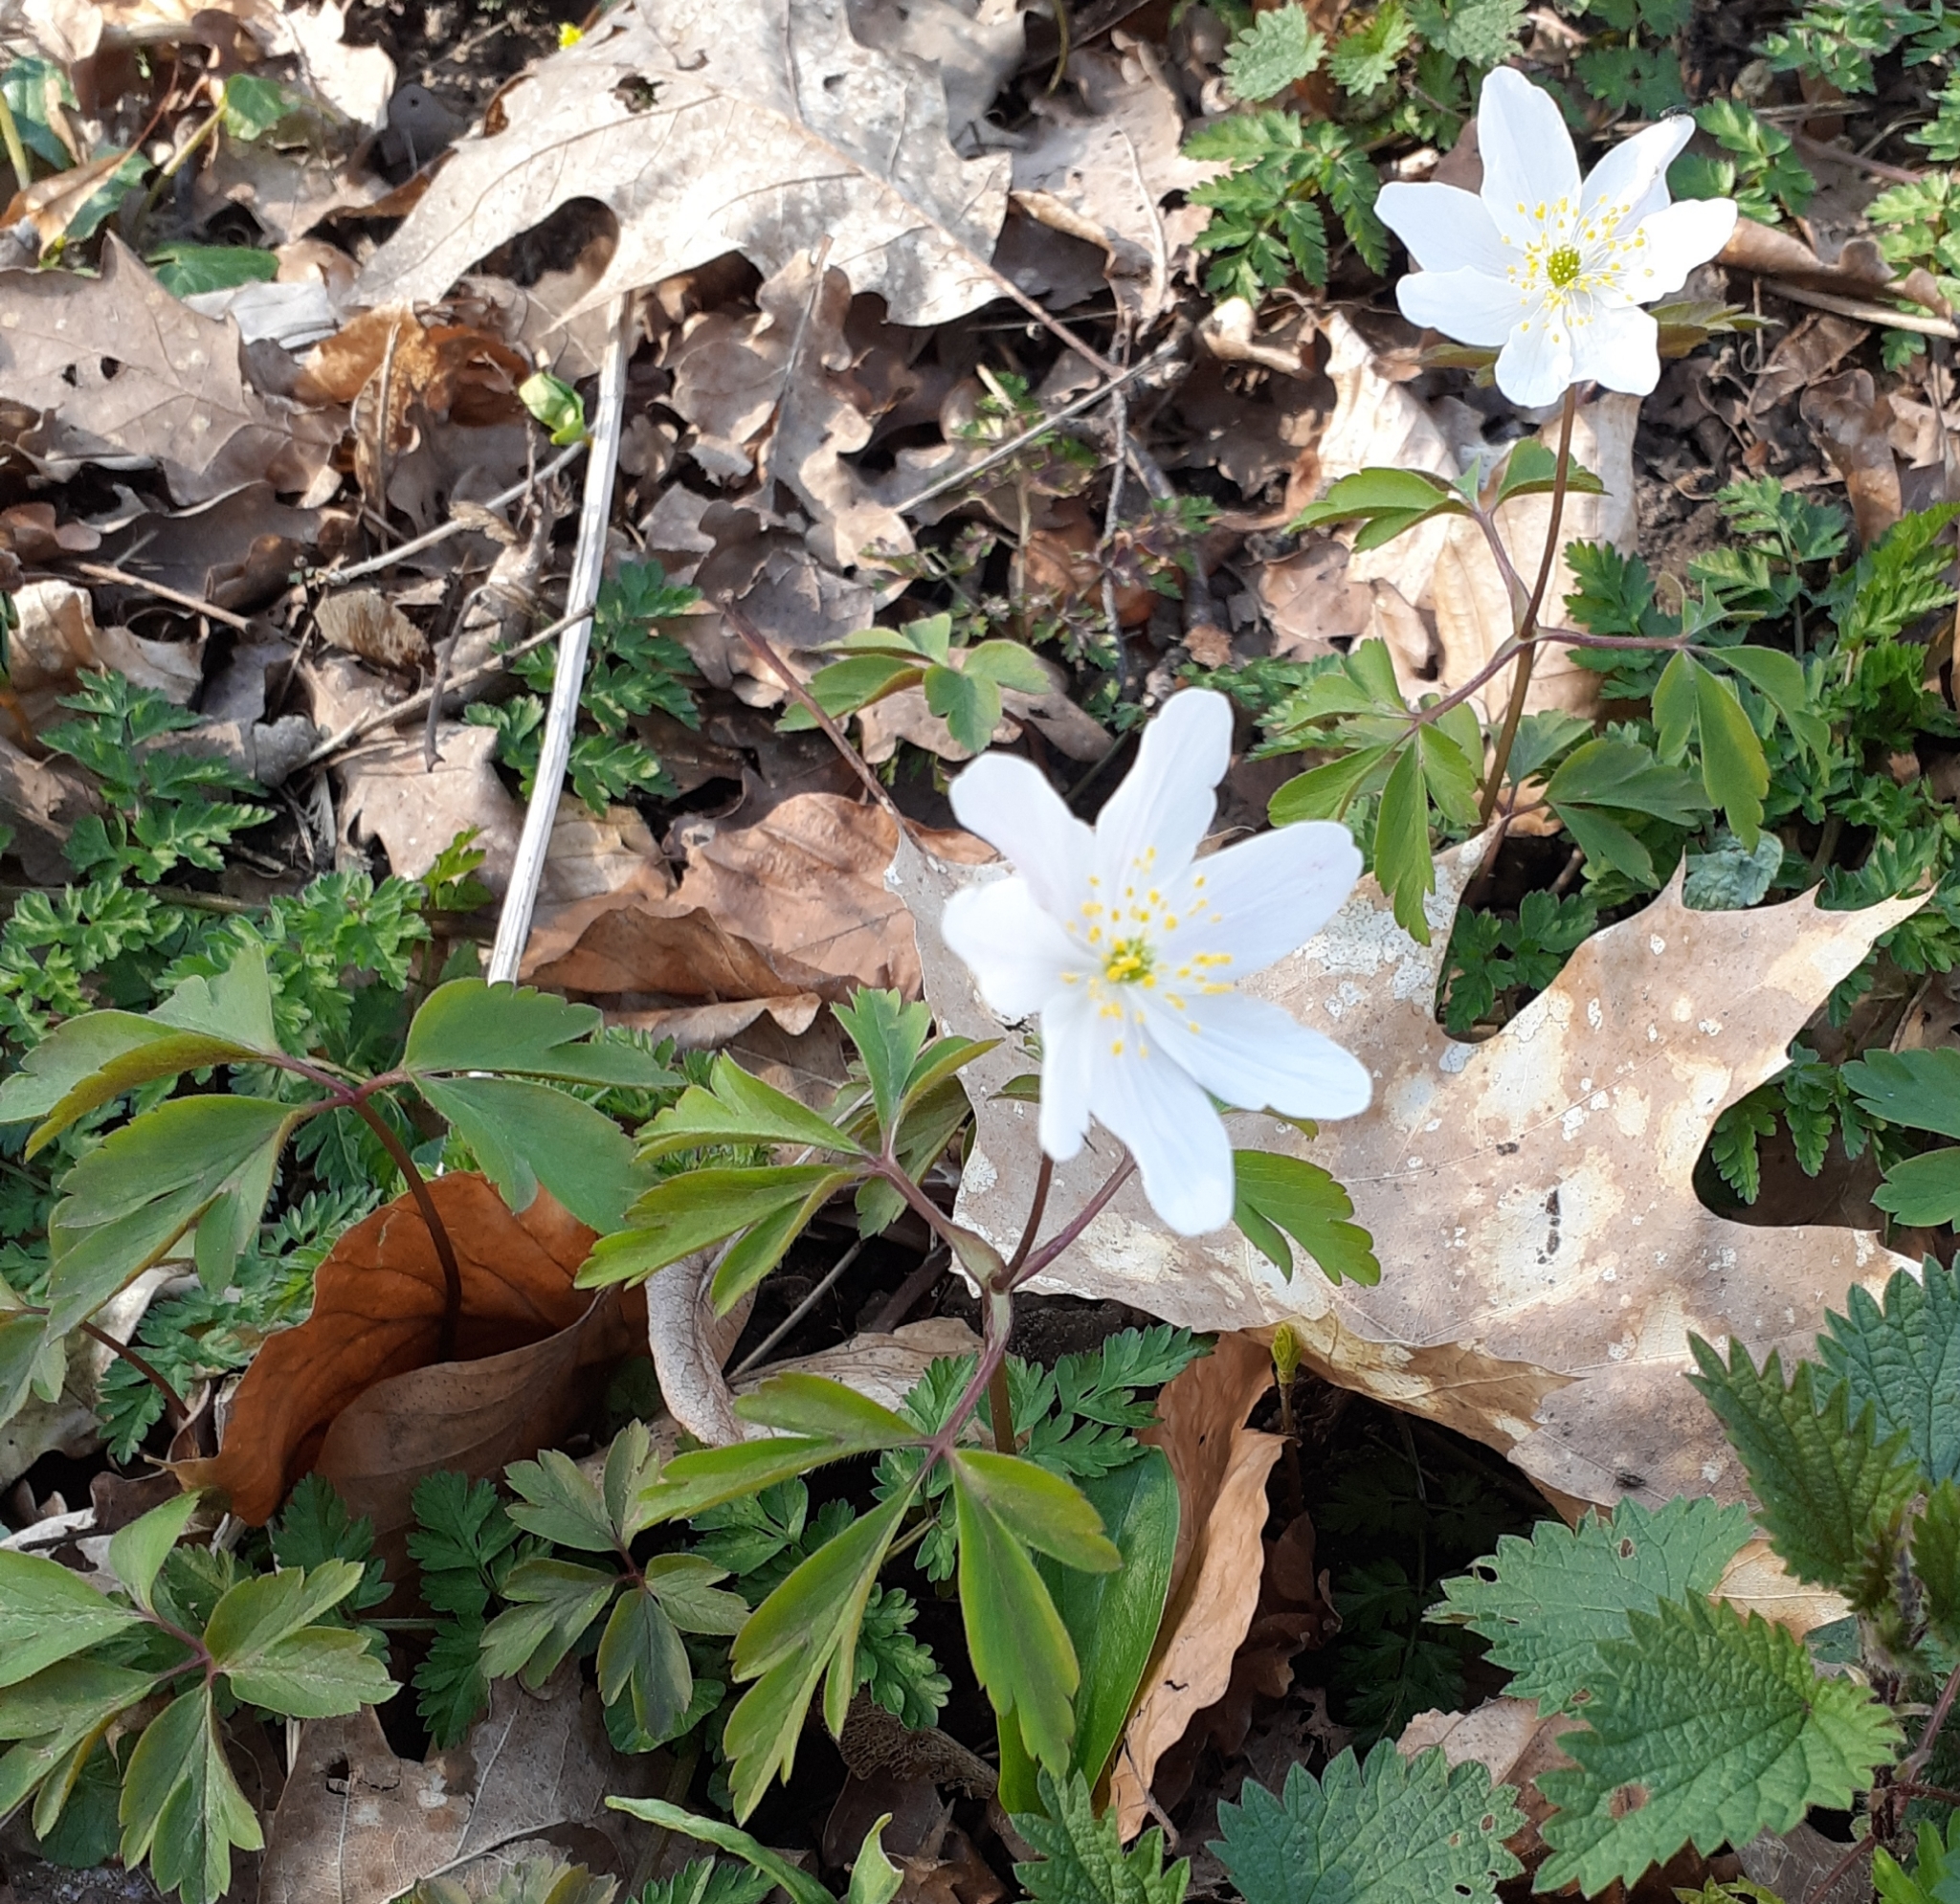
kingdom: Plantae
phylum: Tracheophyta
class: Magnoliopsida
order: Ranunculales
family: Ranunculaceae
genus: Anemone
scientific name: Anemone nemorosa
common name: Wood anemone
